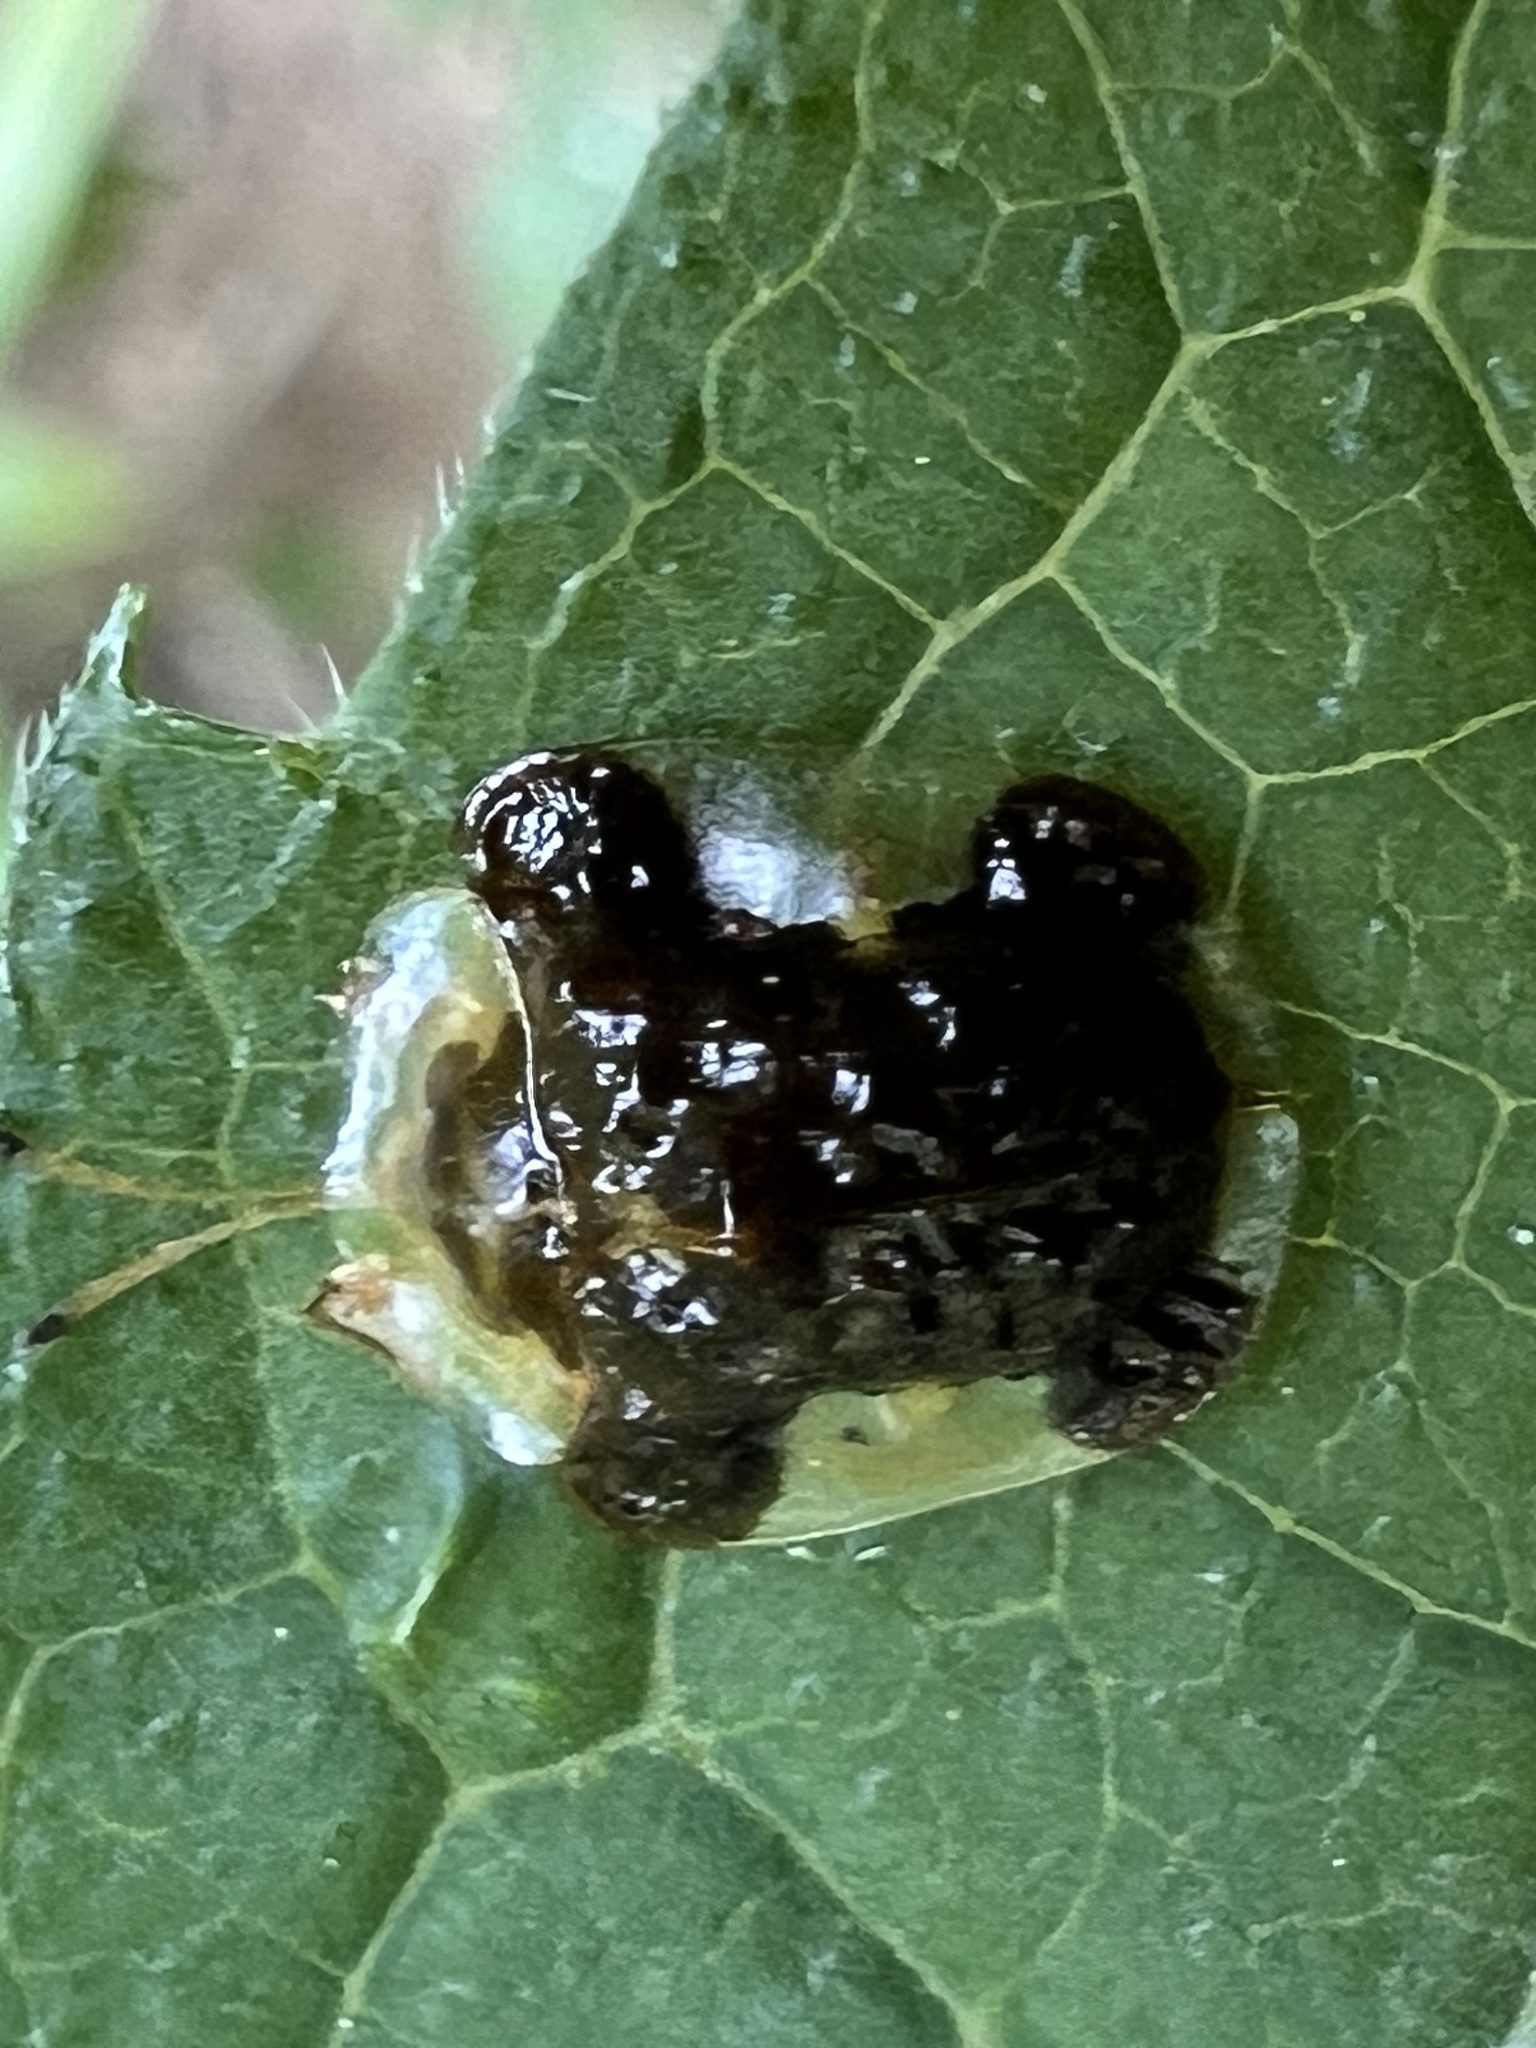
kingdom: Animalia
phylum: Arthropoda
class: Insecta
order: Coleoptera
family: Chrysomelidae
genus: Helocassis
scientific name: Helocassis clavata
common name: Clavate tortoise beetle
